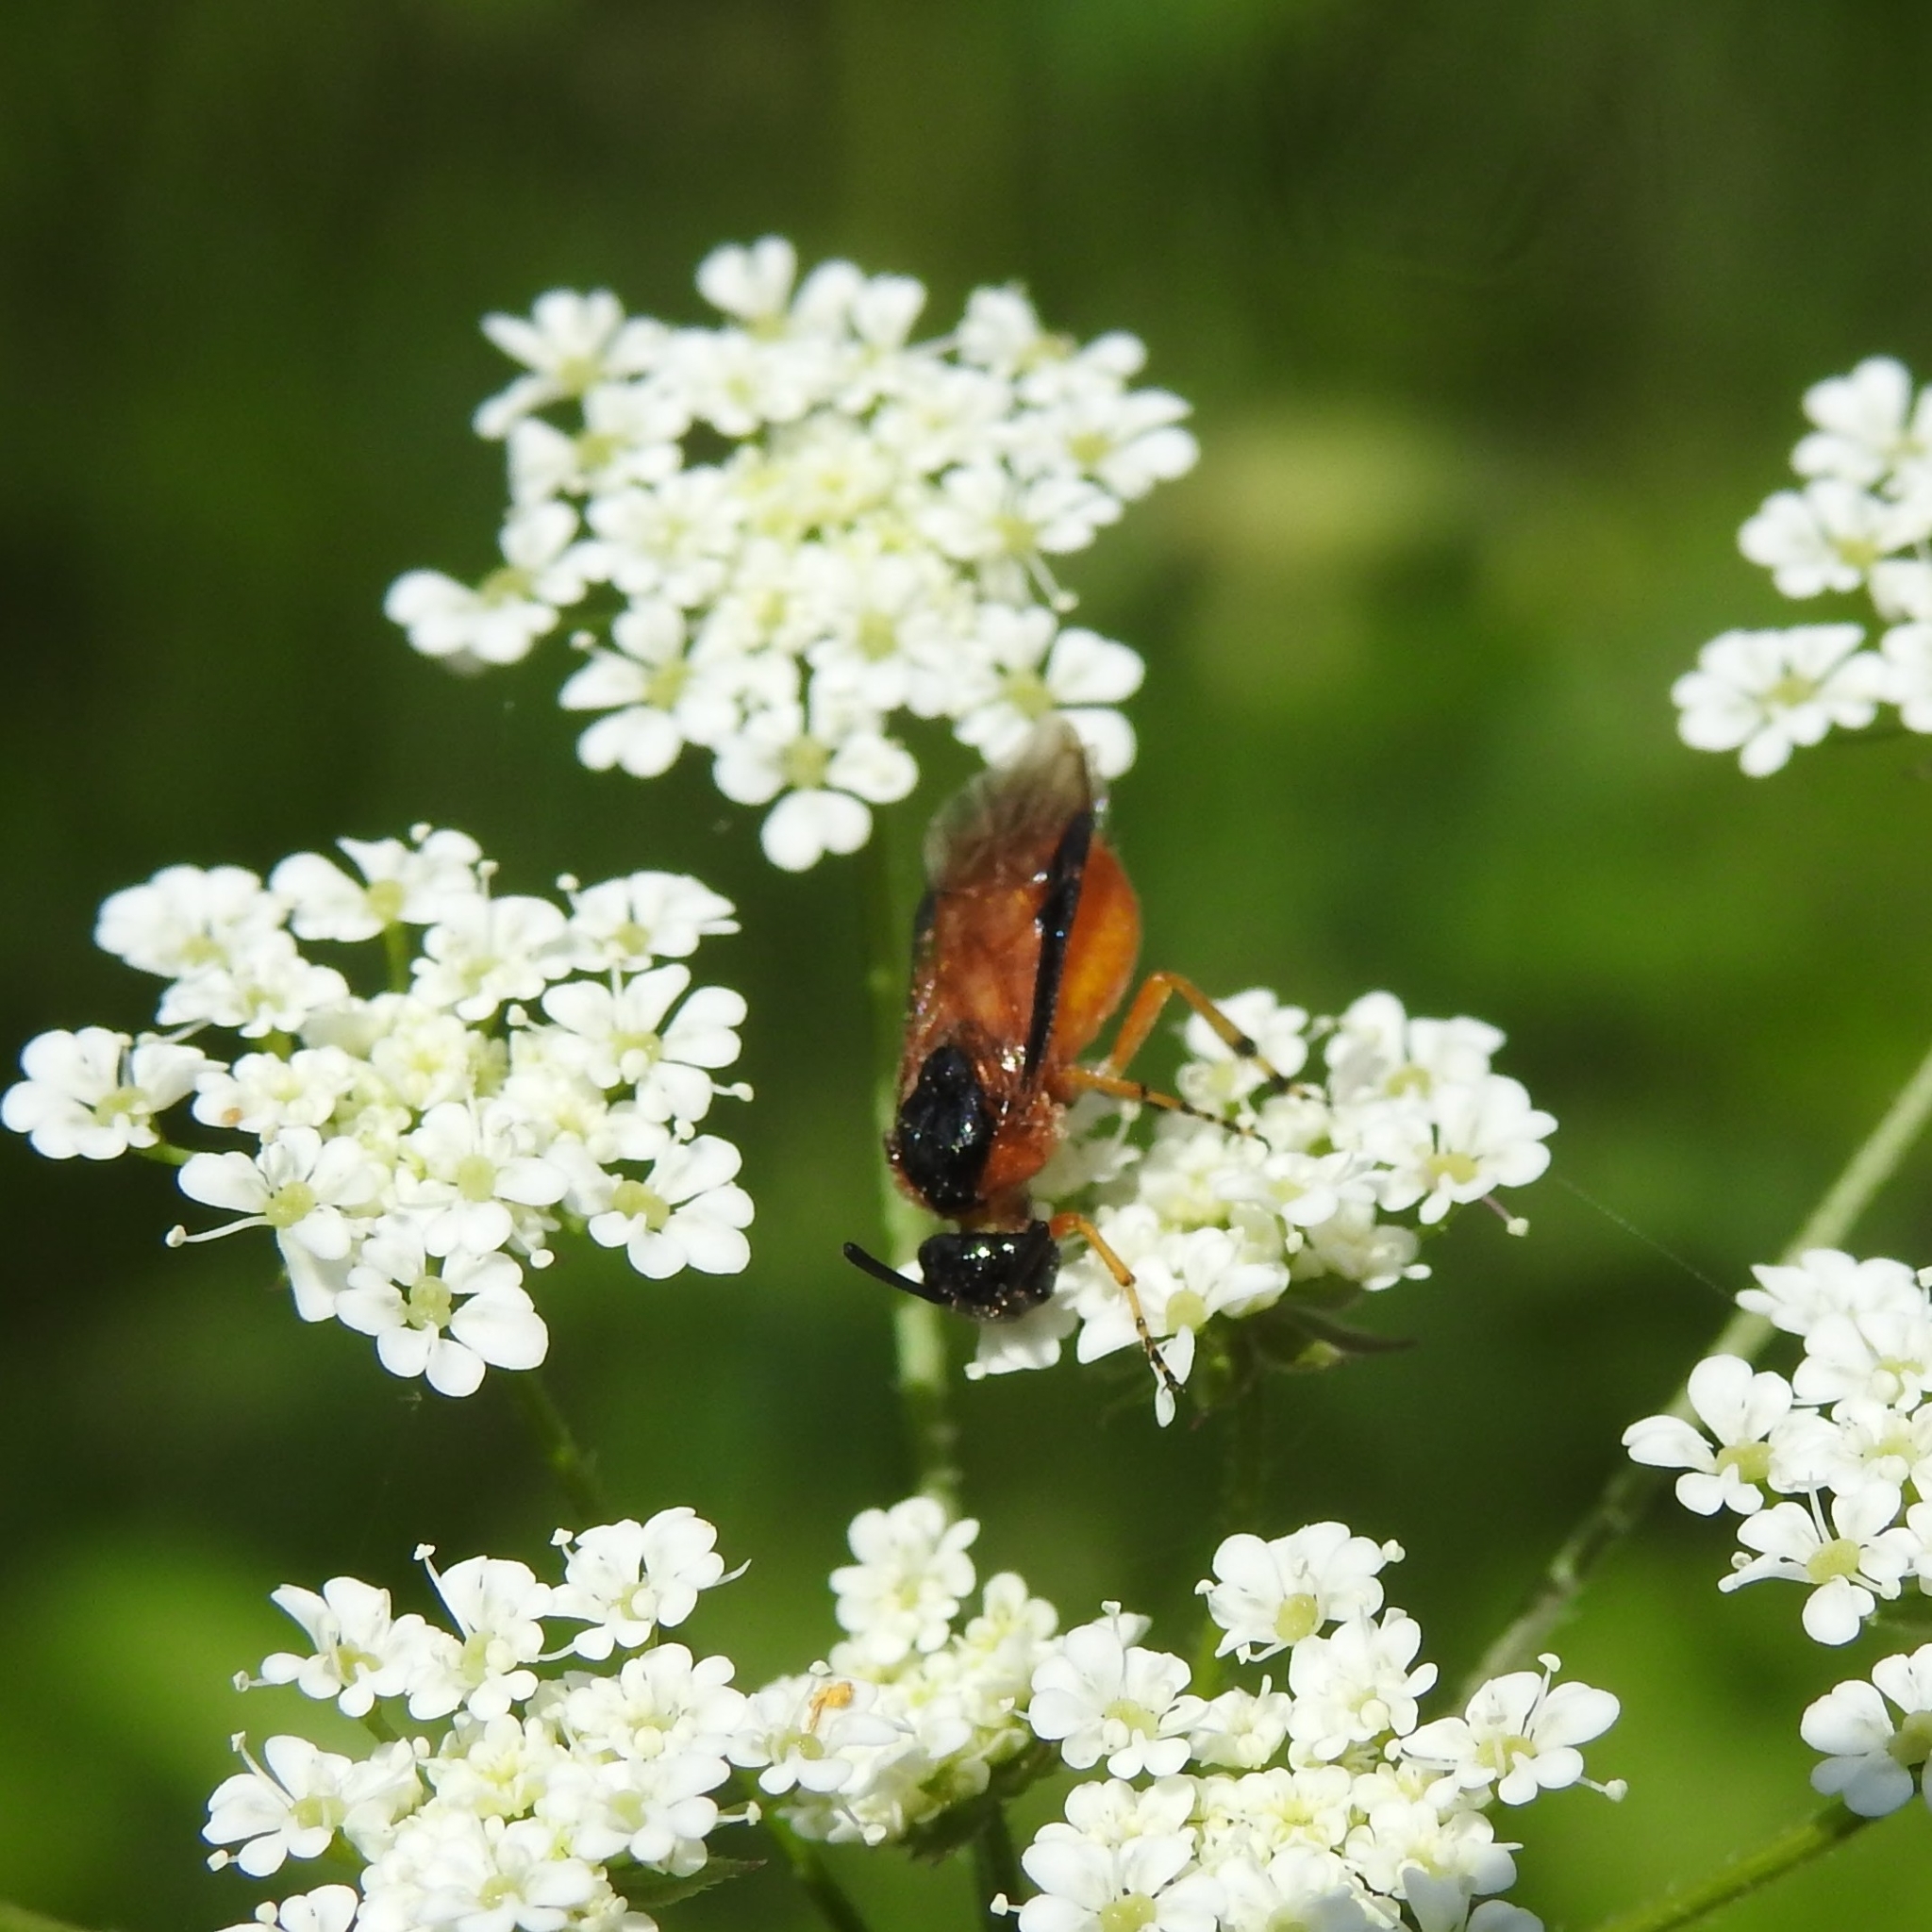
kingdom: Animalia
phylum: Arthropoda
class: Insecta
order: Hymenoptera
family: Argidae
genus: Arge
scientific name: Arge ochropus
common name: Argid sawfly
